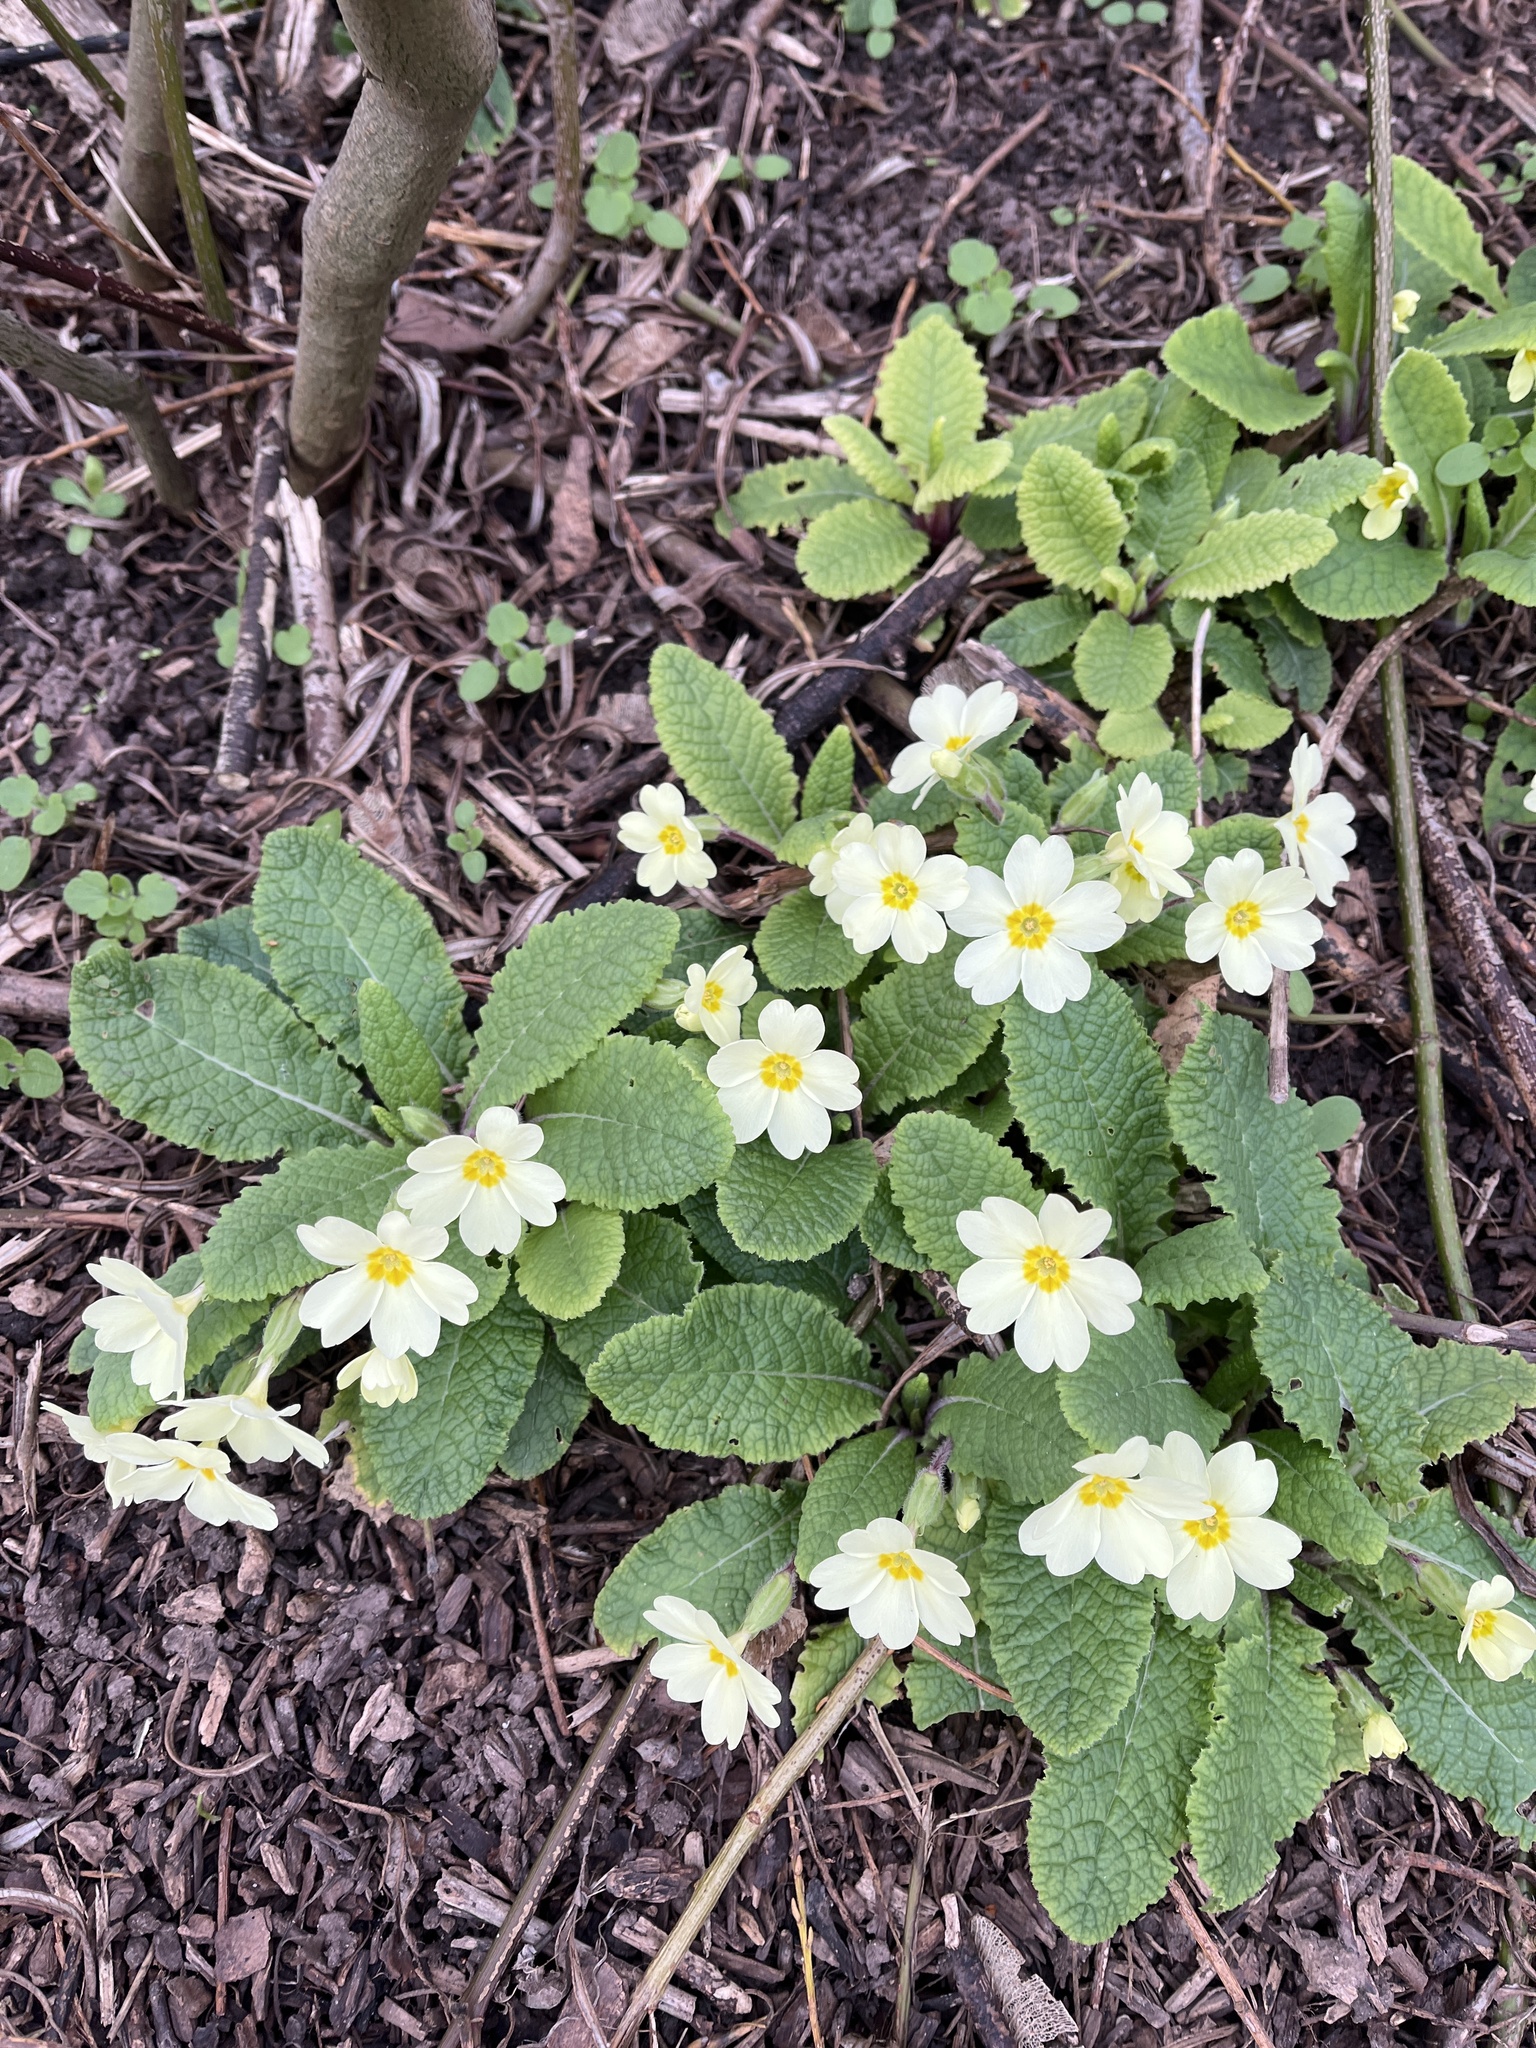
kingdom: Plantae
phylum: Tracheophyta
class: Magnoliopsida
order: Ericales
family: Primulaceae
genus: Primula
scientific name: Primula vulgaris
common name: Primrose
